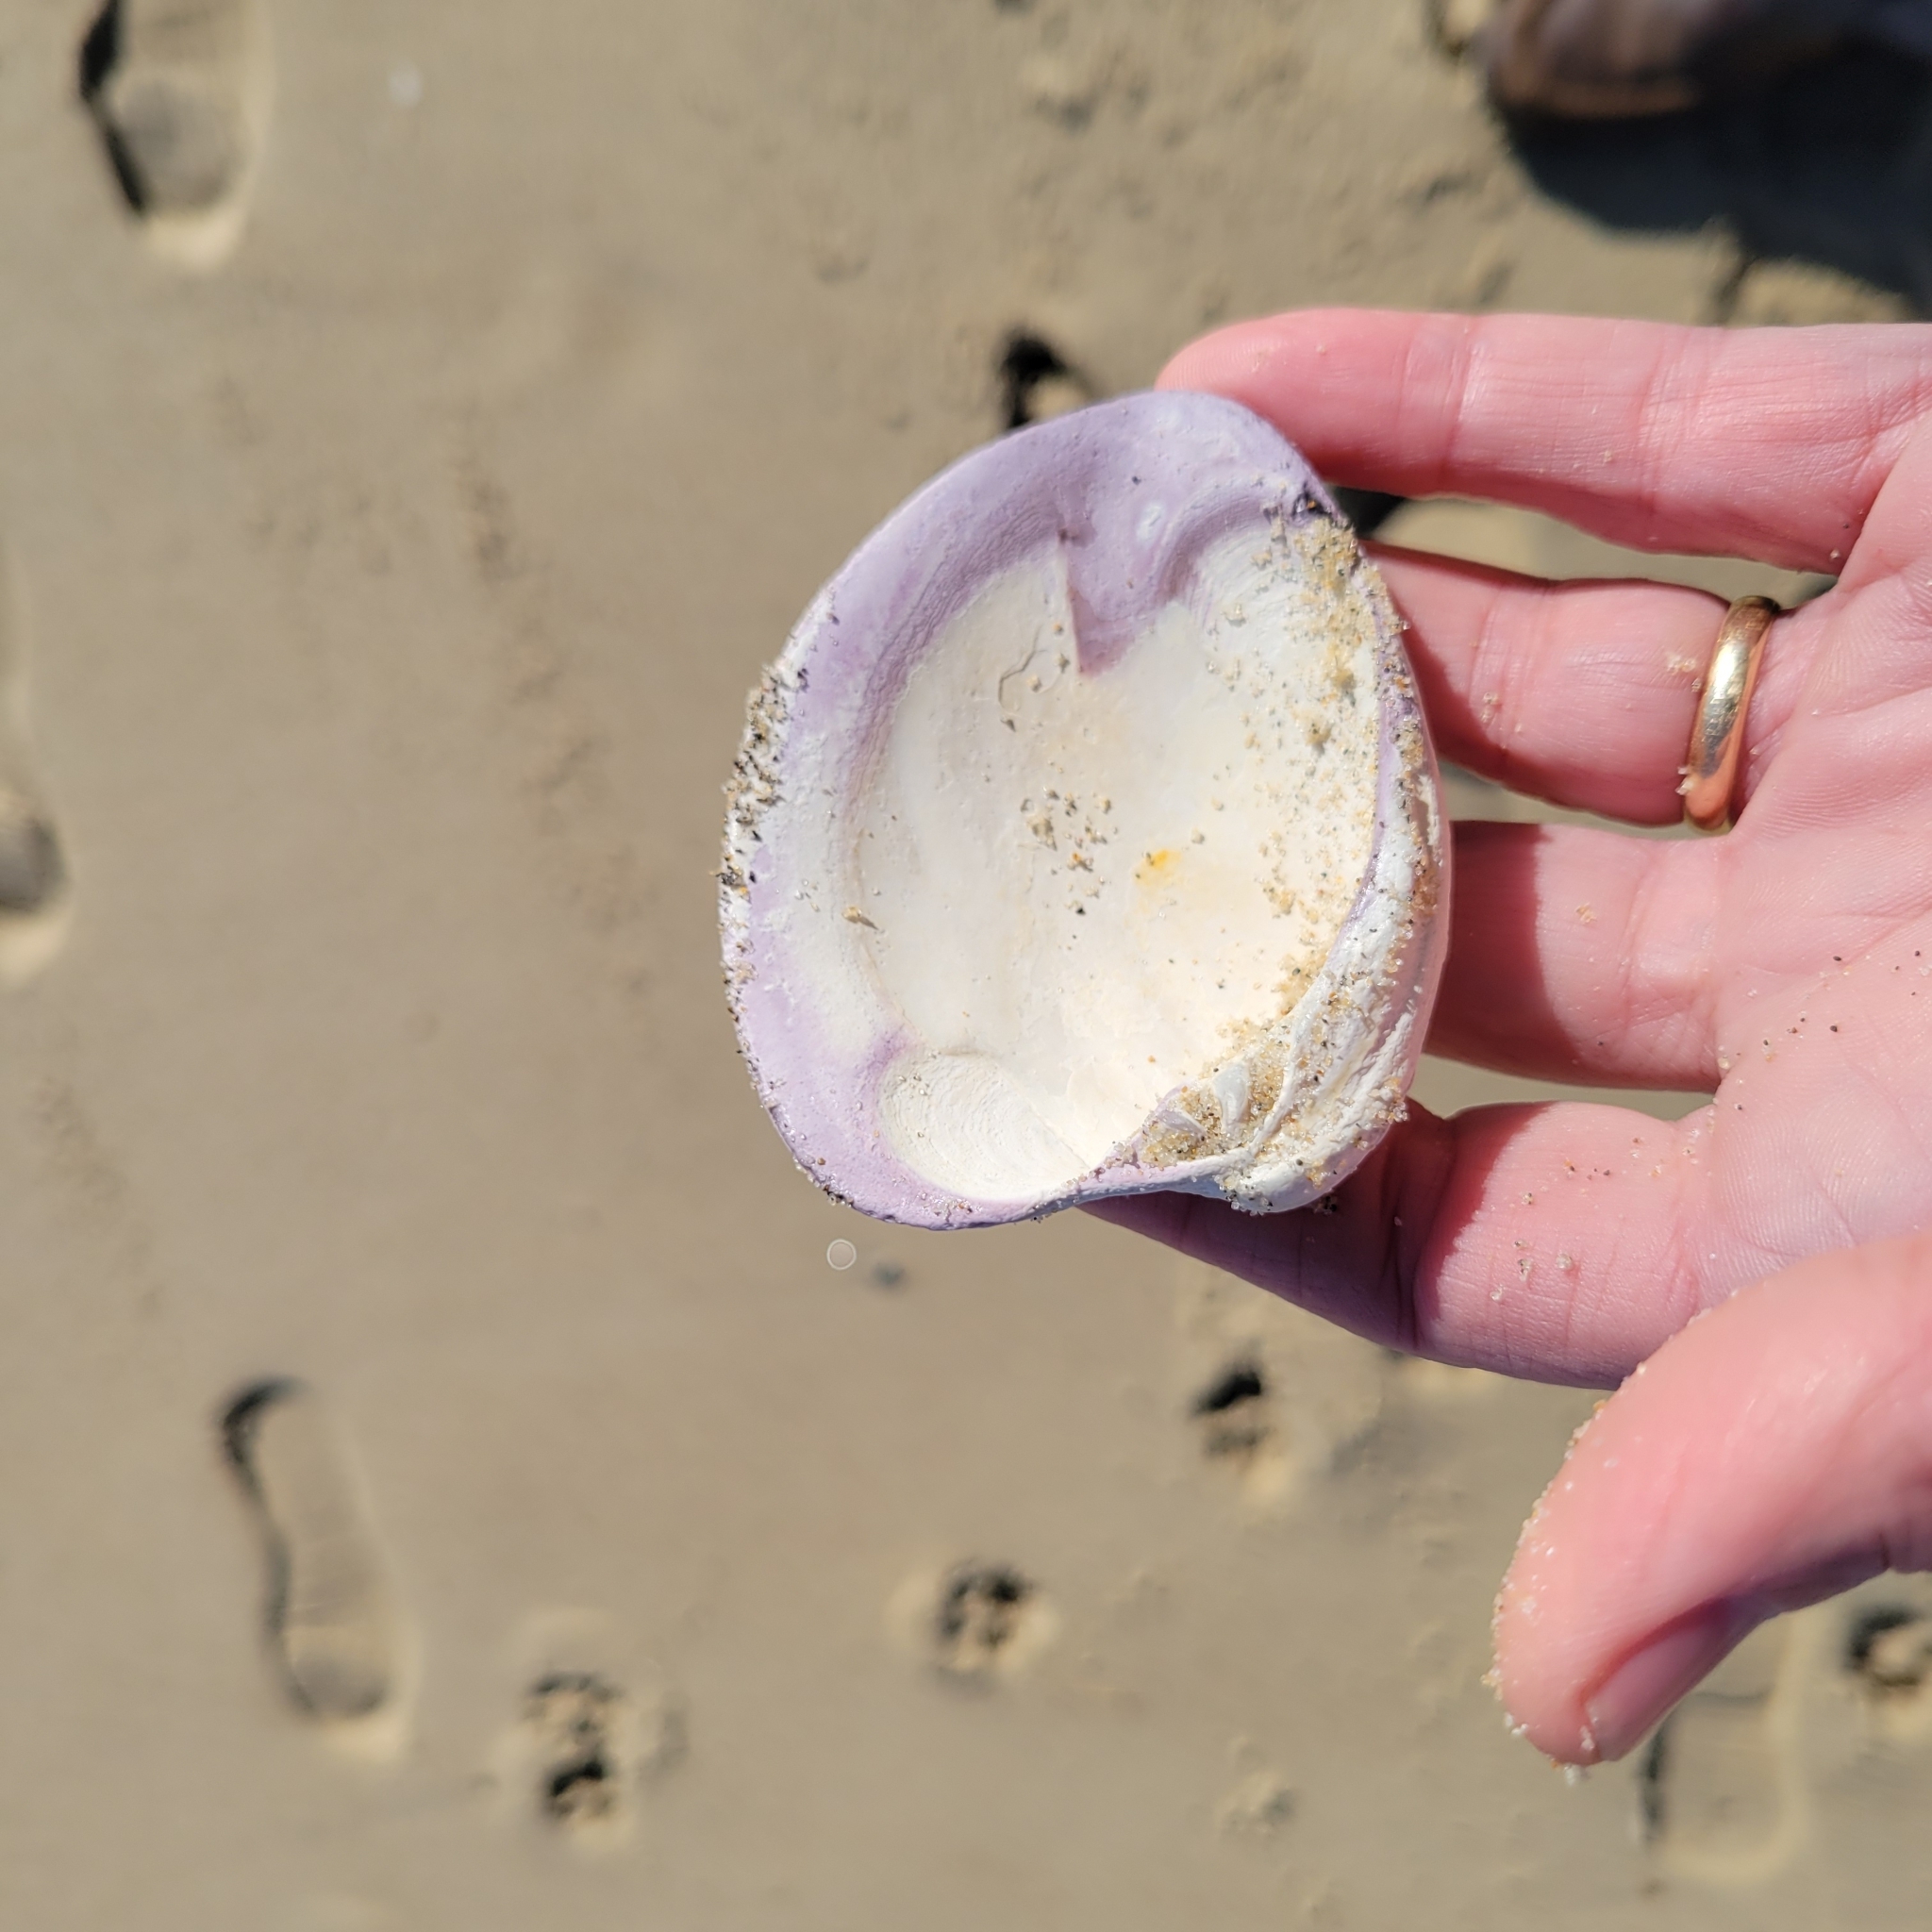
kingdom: Animalia
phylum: Mollusca
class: Bivalvia
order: Venerida
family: Veneridae
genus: Mercenaria
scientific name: Mercenaria mercenaria
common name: American hard-shelled clam
